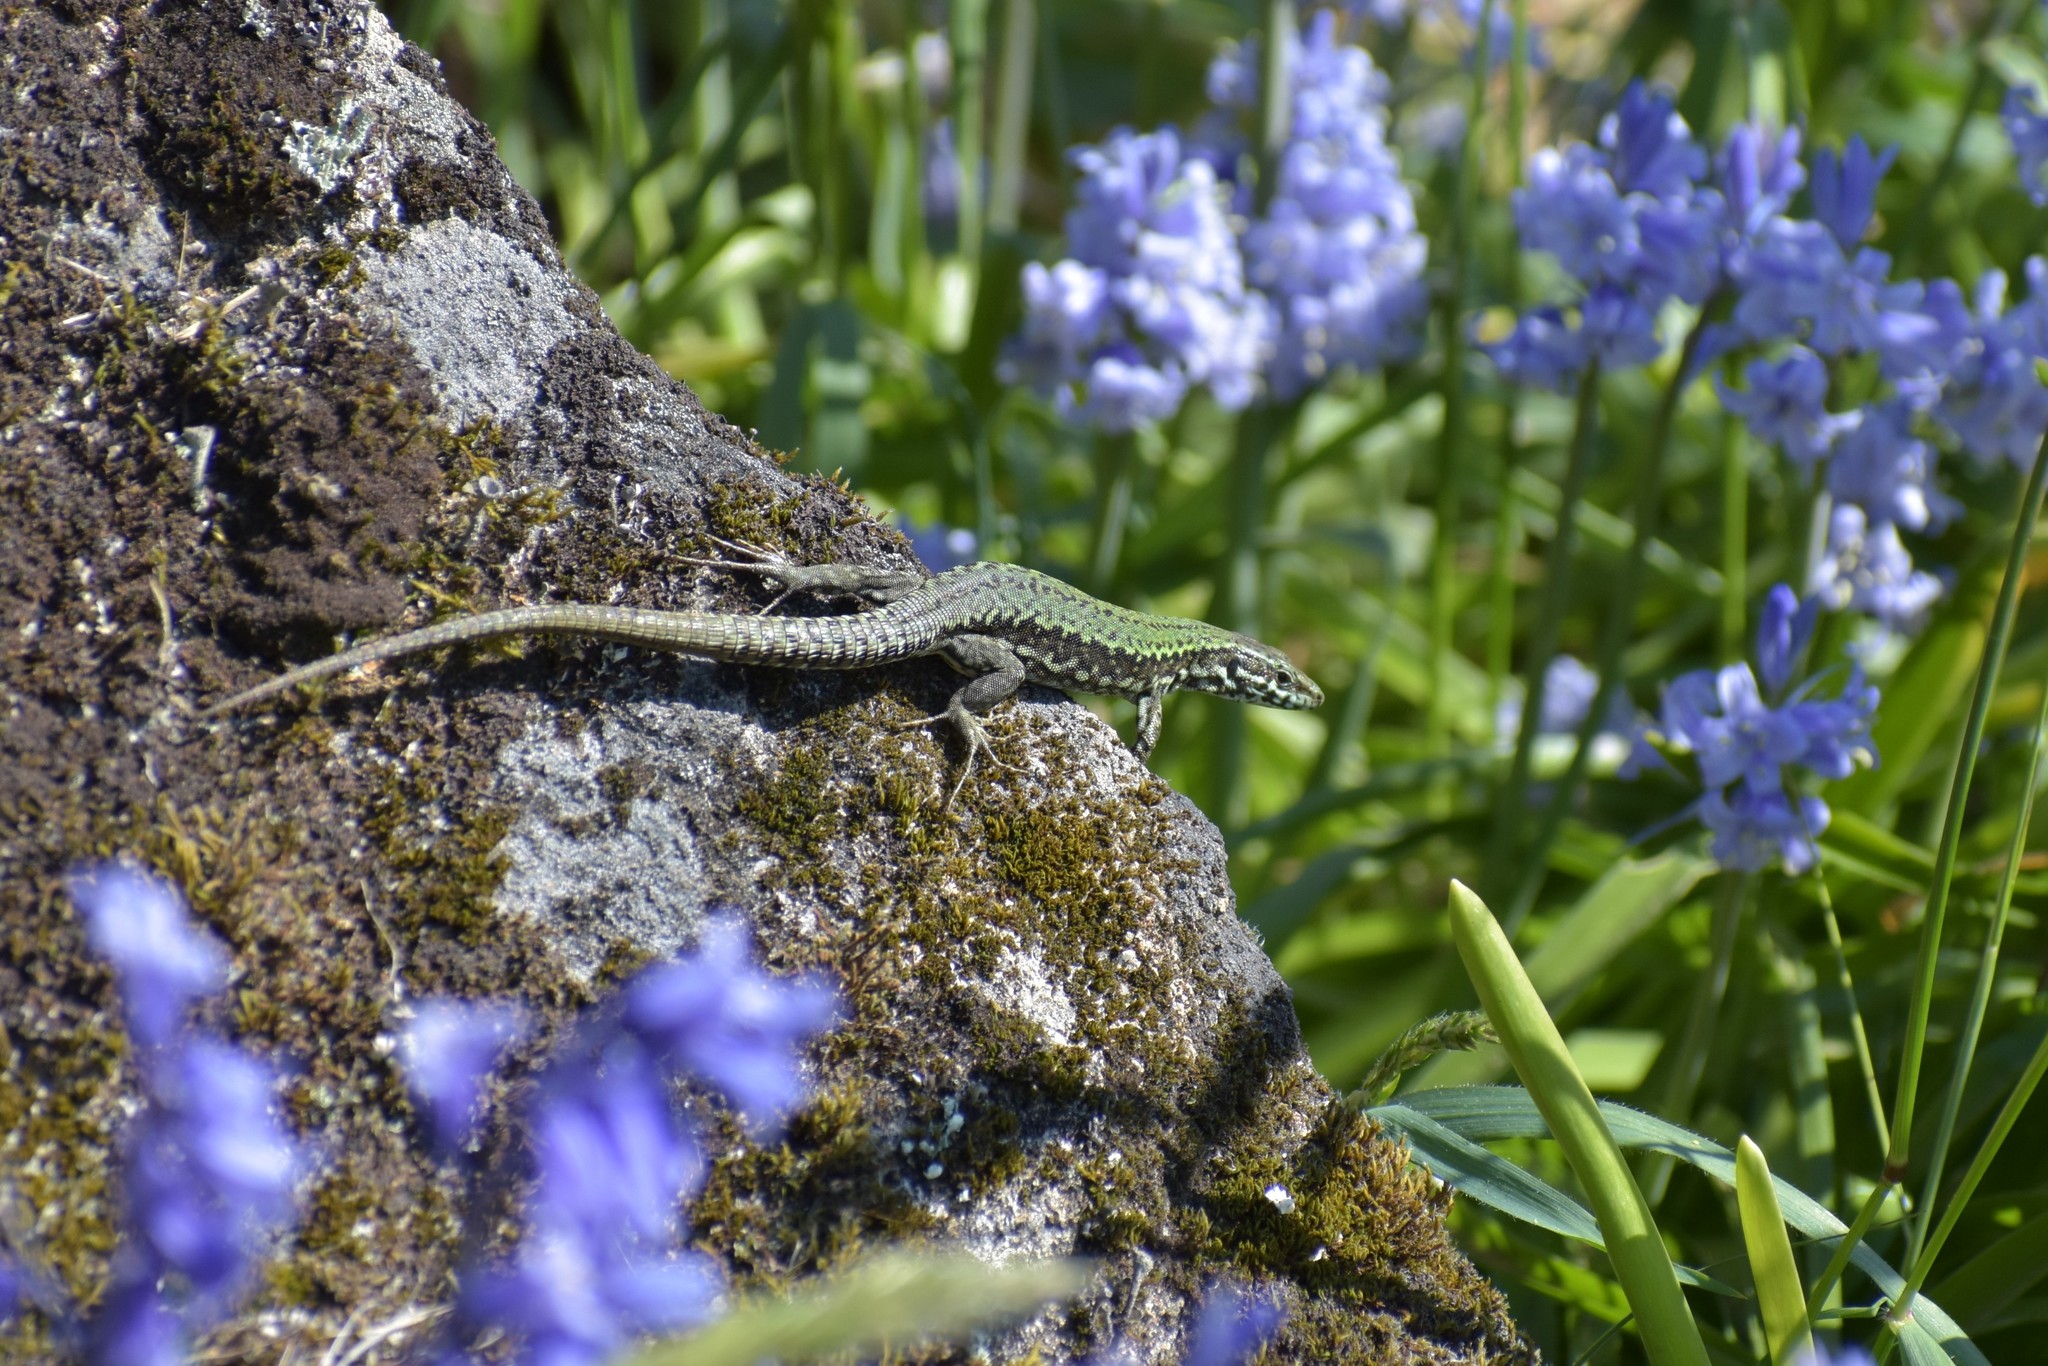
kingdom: Animalia
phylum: Chordata
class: Squamata
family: Lacertidae
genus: Podarcis
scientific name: Podarcis muralis
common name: Common wall lizard
